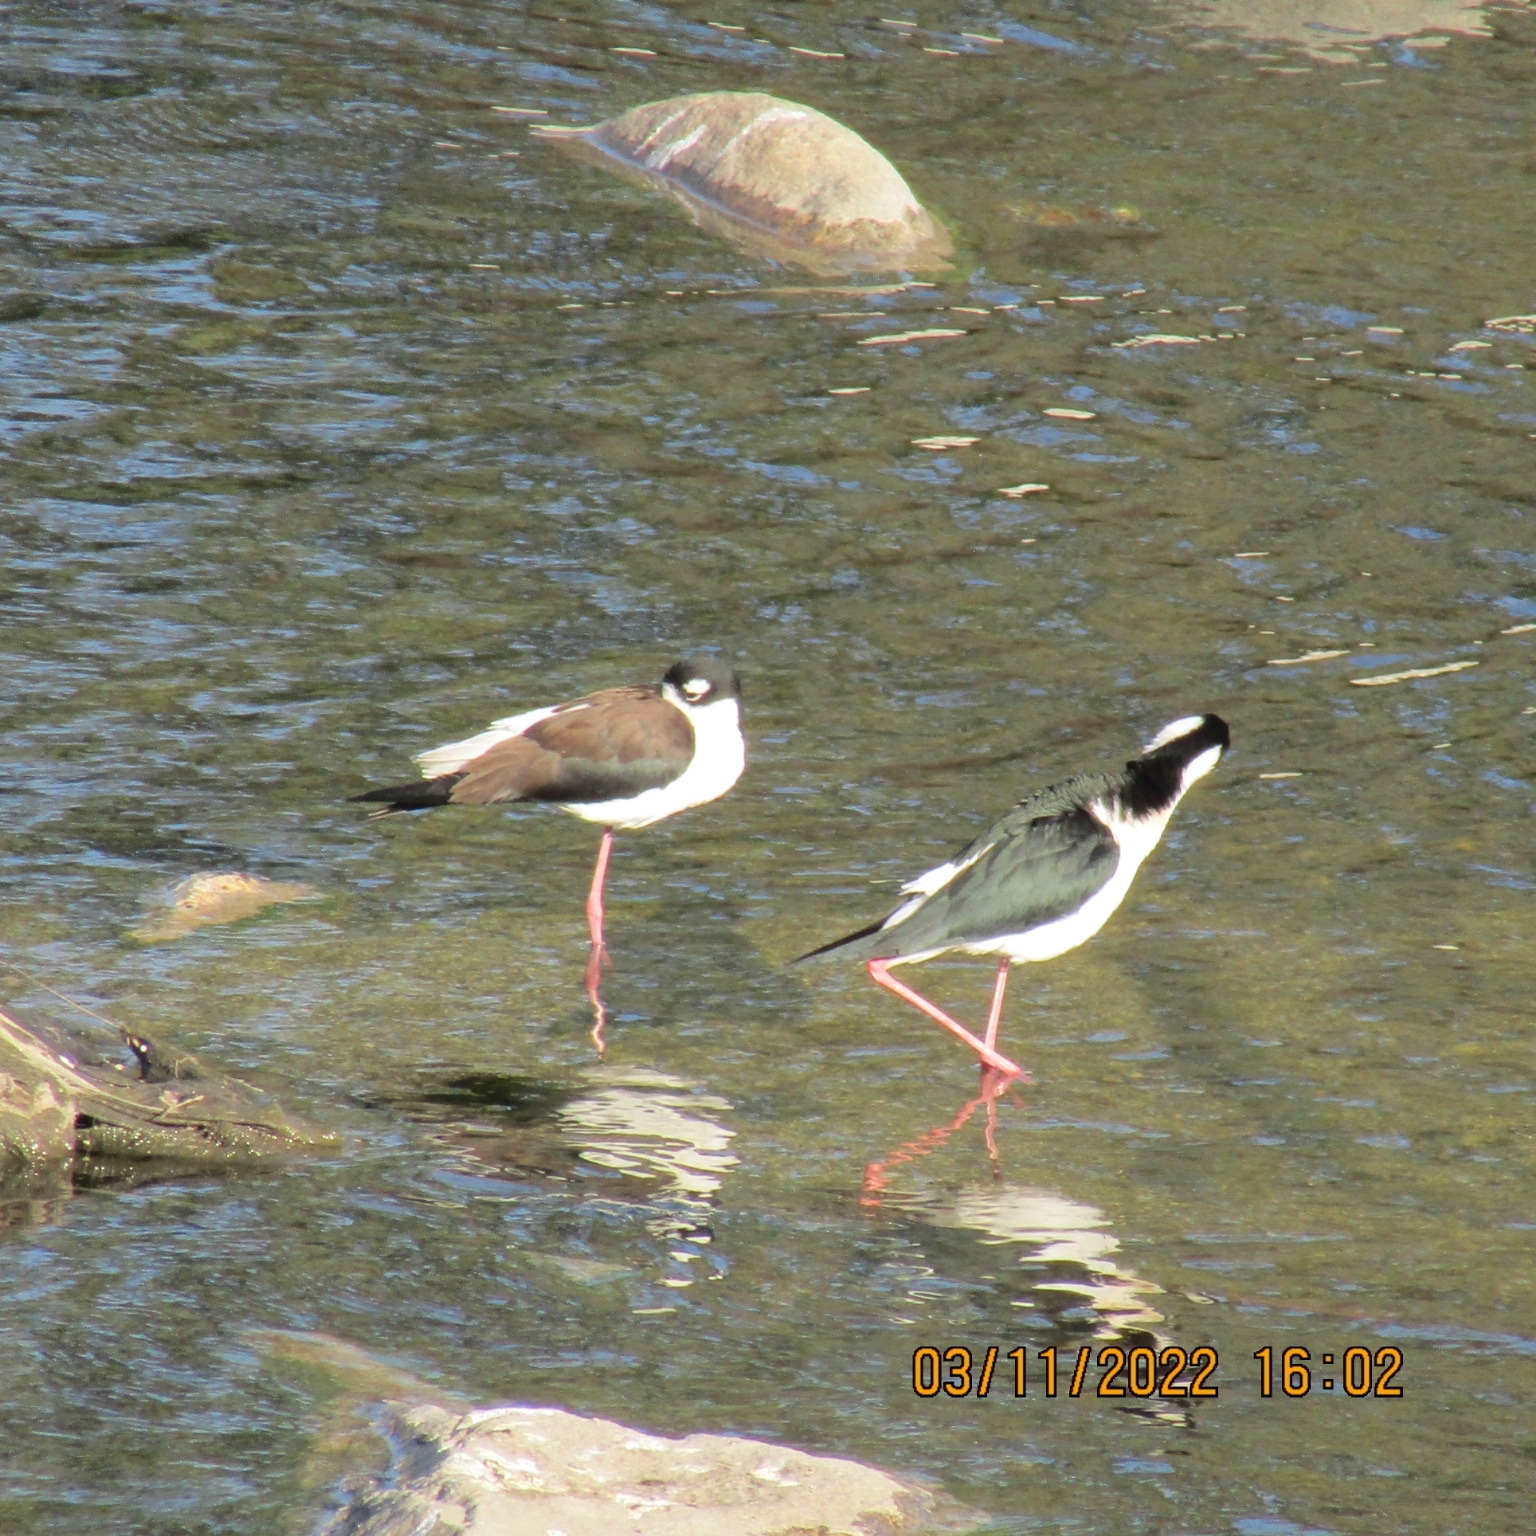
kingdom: Animalia
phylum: Chordata
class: Aves
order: Charadriiformes
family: Recurvirostridae
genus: Himantopus
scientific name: Himantopus mexicanus
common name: Black-necked stilt
